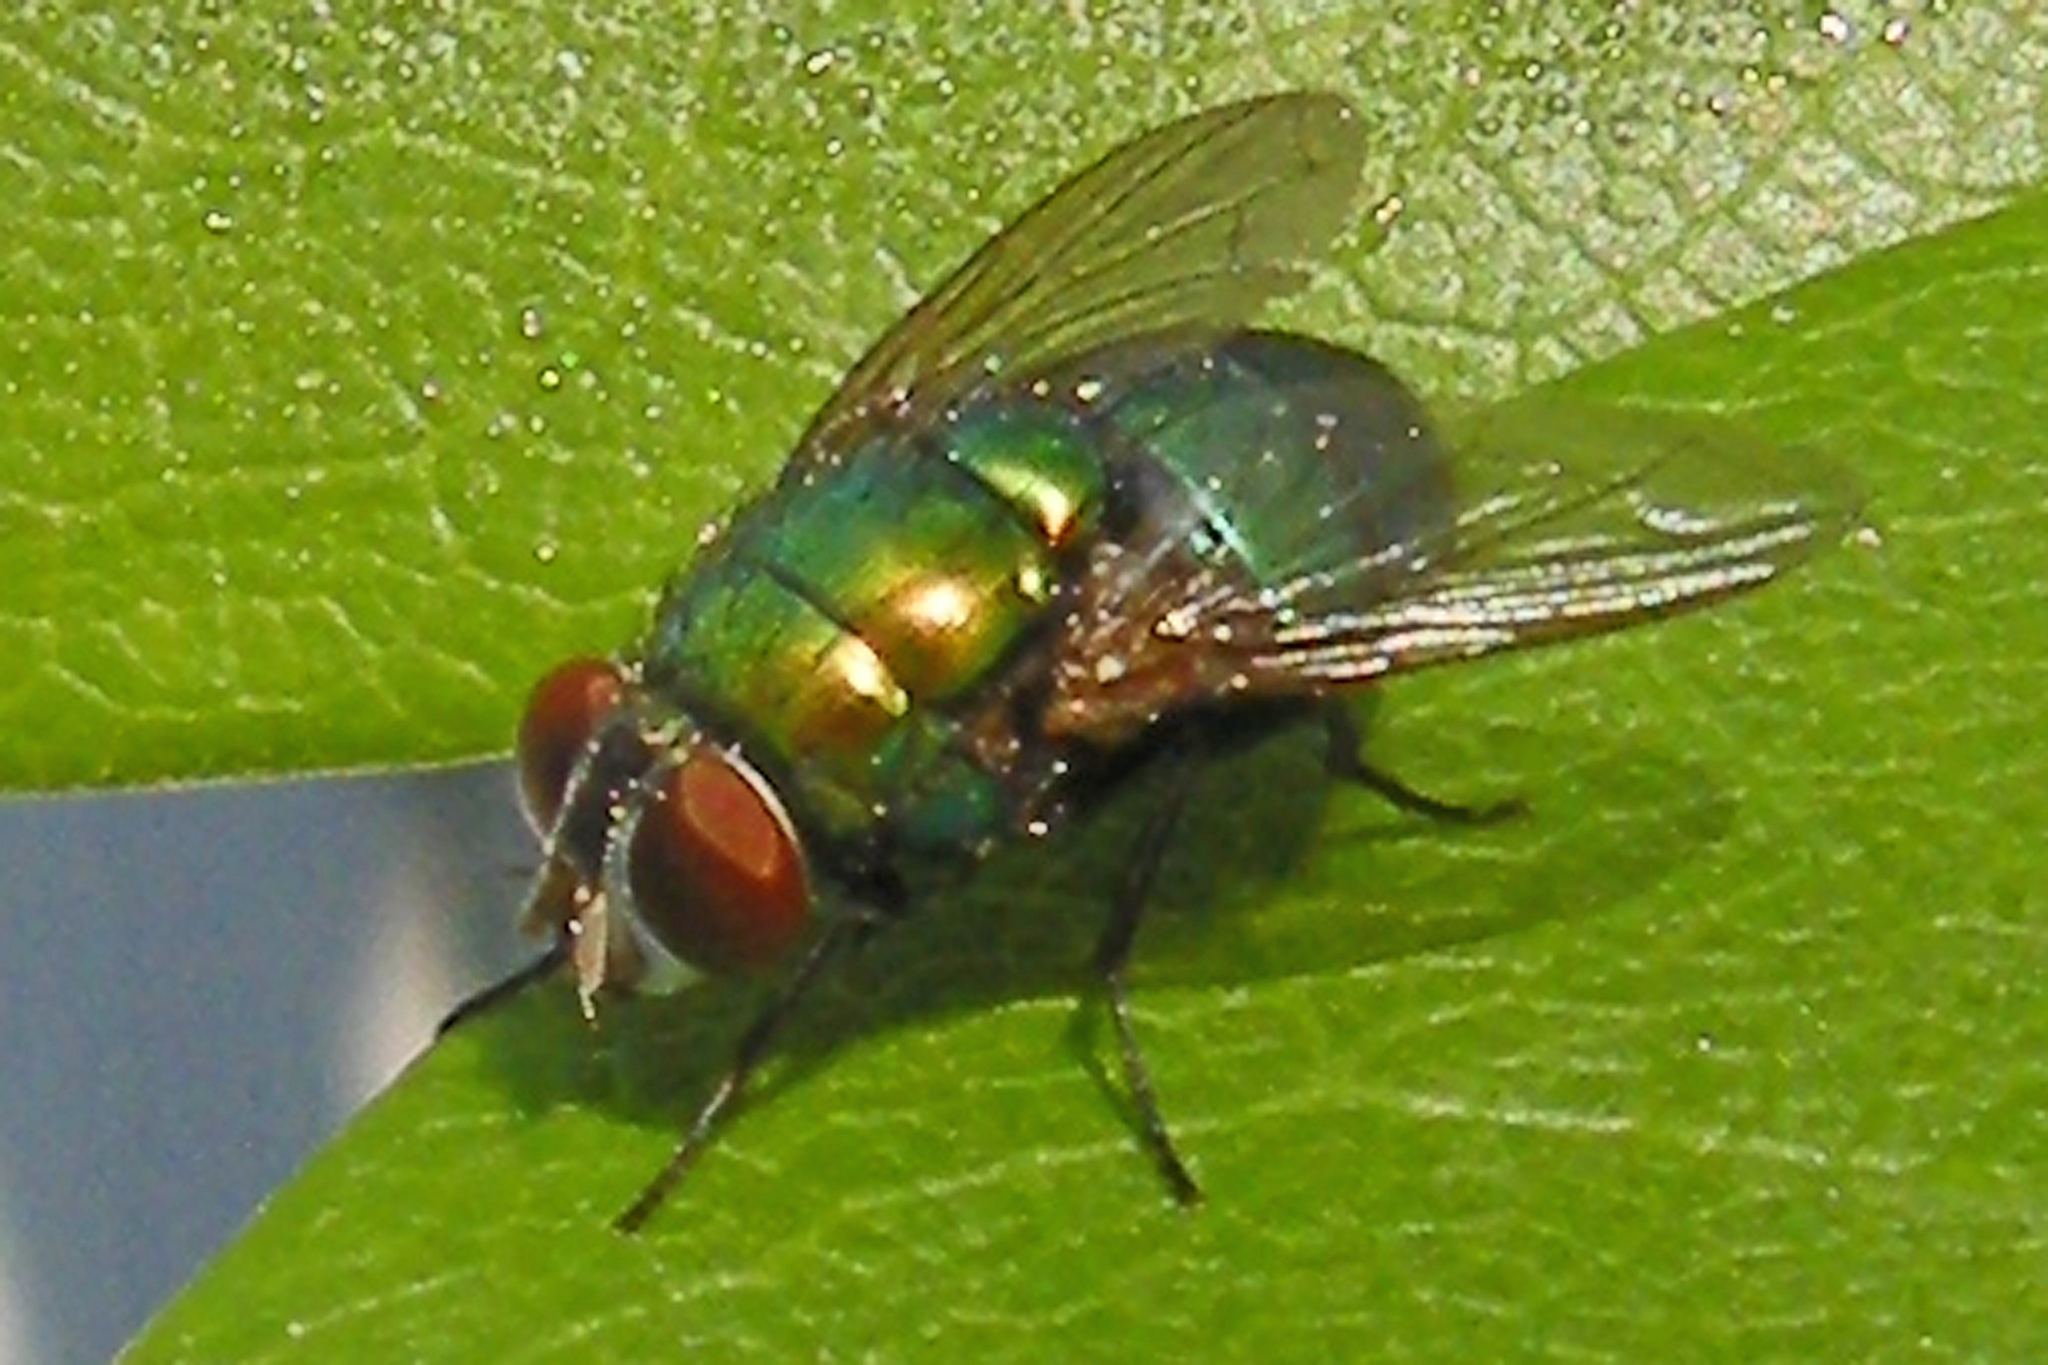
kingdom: Animalia
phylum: Arthropoda
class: Insecta
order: Diptera
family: Calliphoridae
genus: Lucilia
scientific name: Lucilia caeruleiviridis
